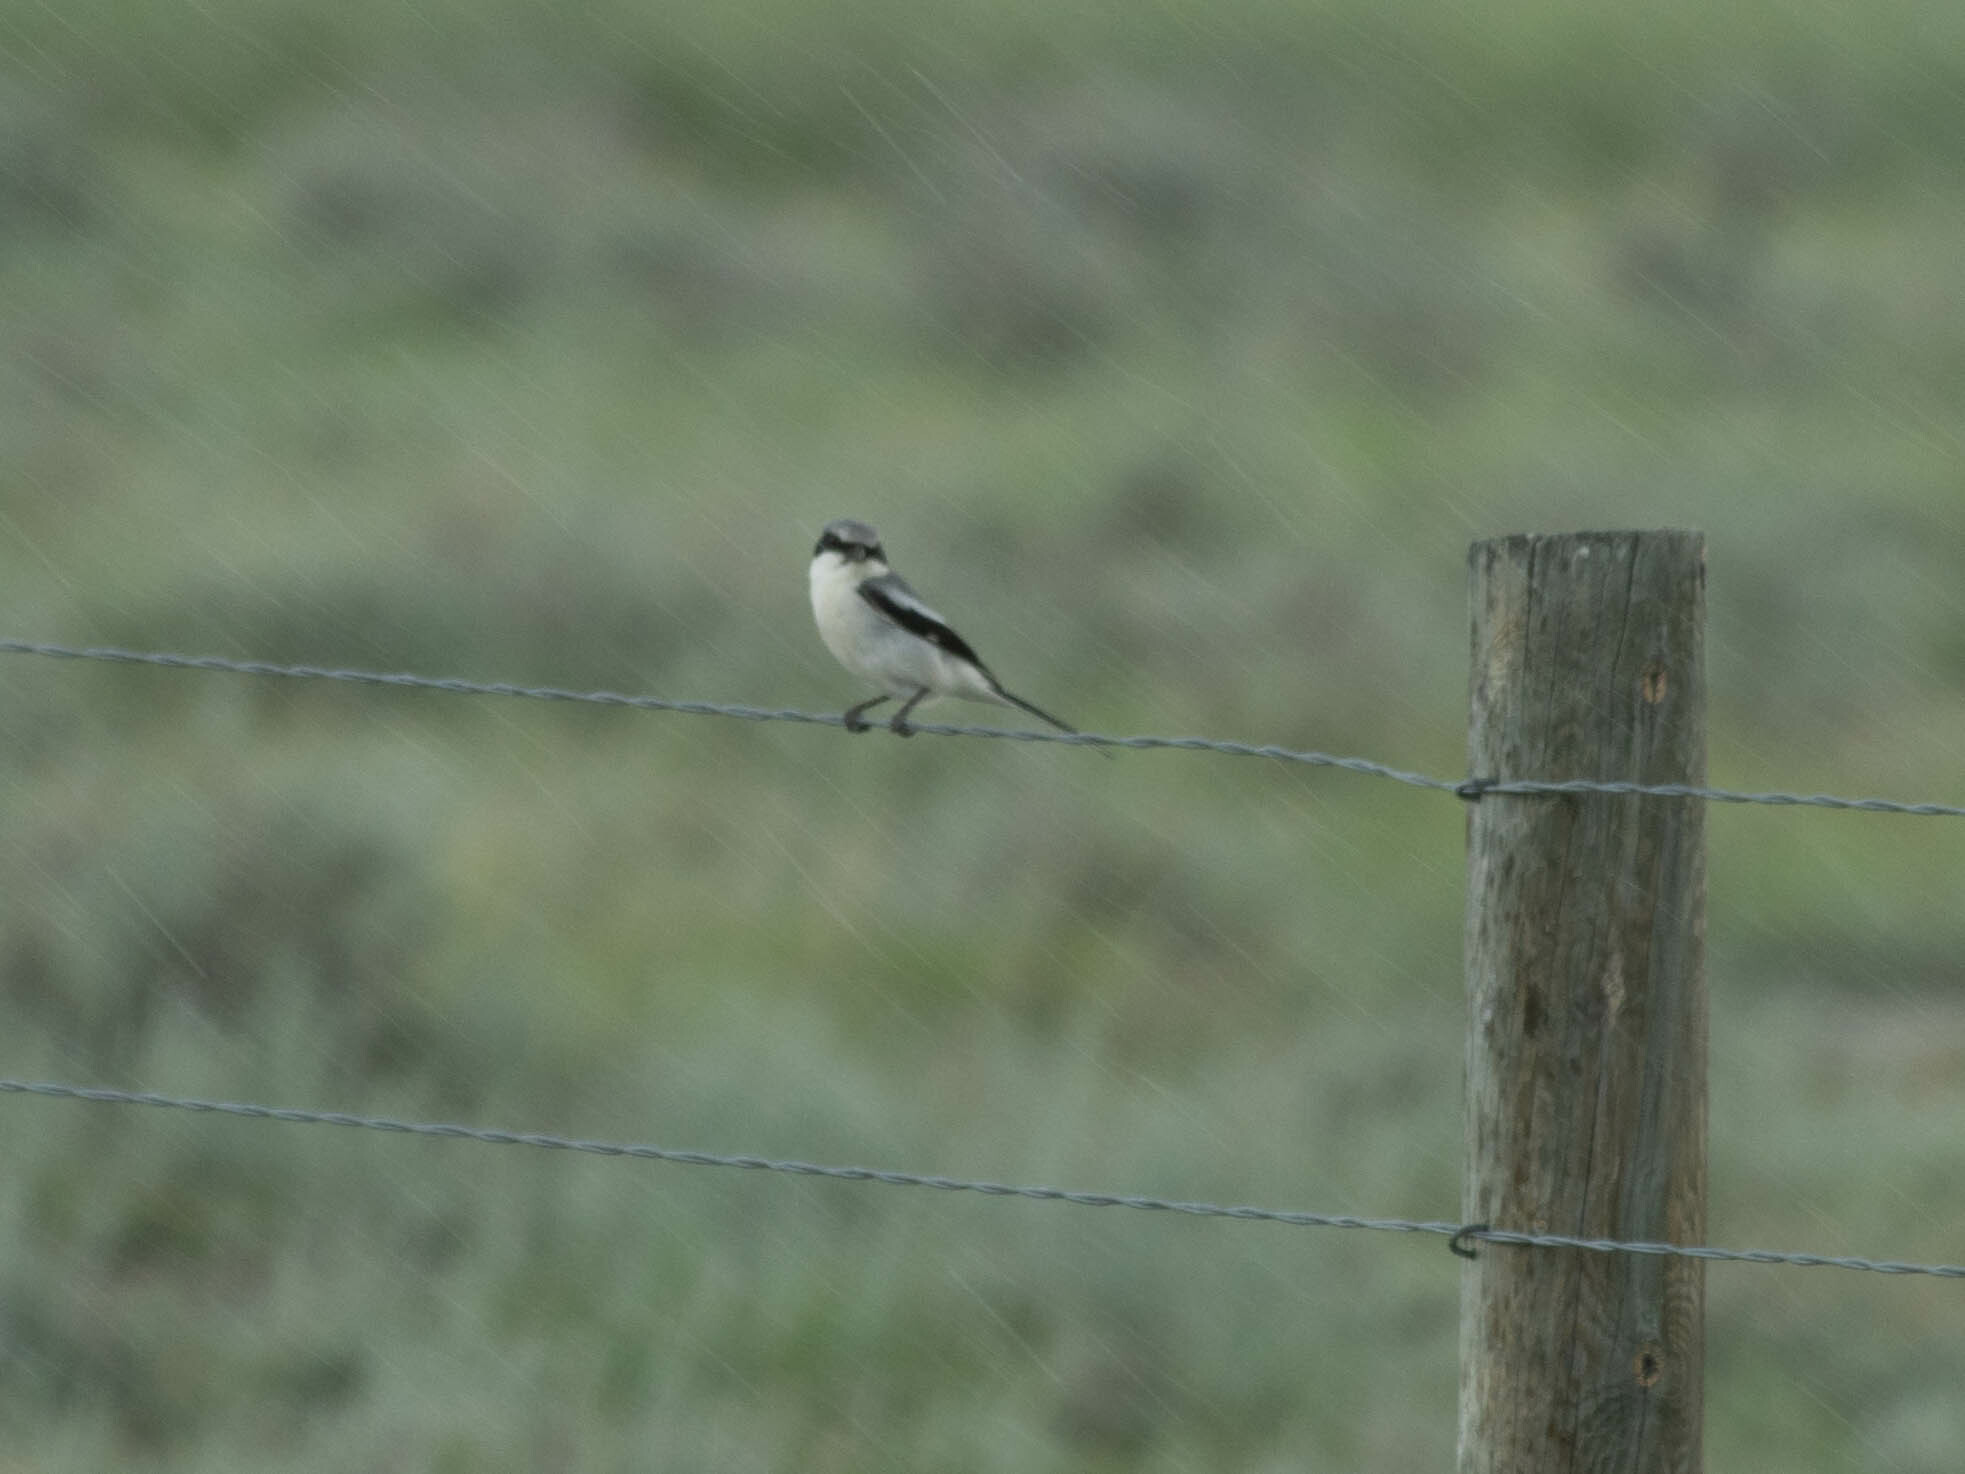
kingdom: Animalia
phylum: Chordata
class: Aves
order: Passeriformes
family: Laniidae
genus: Lanius
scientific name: Lanius ludovicianus
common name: Loggerhead shrike
